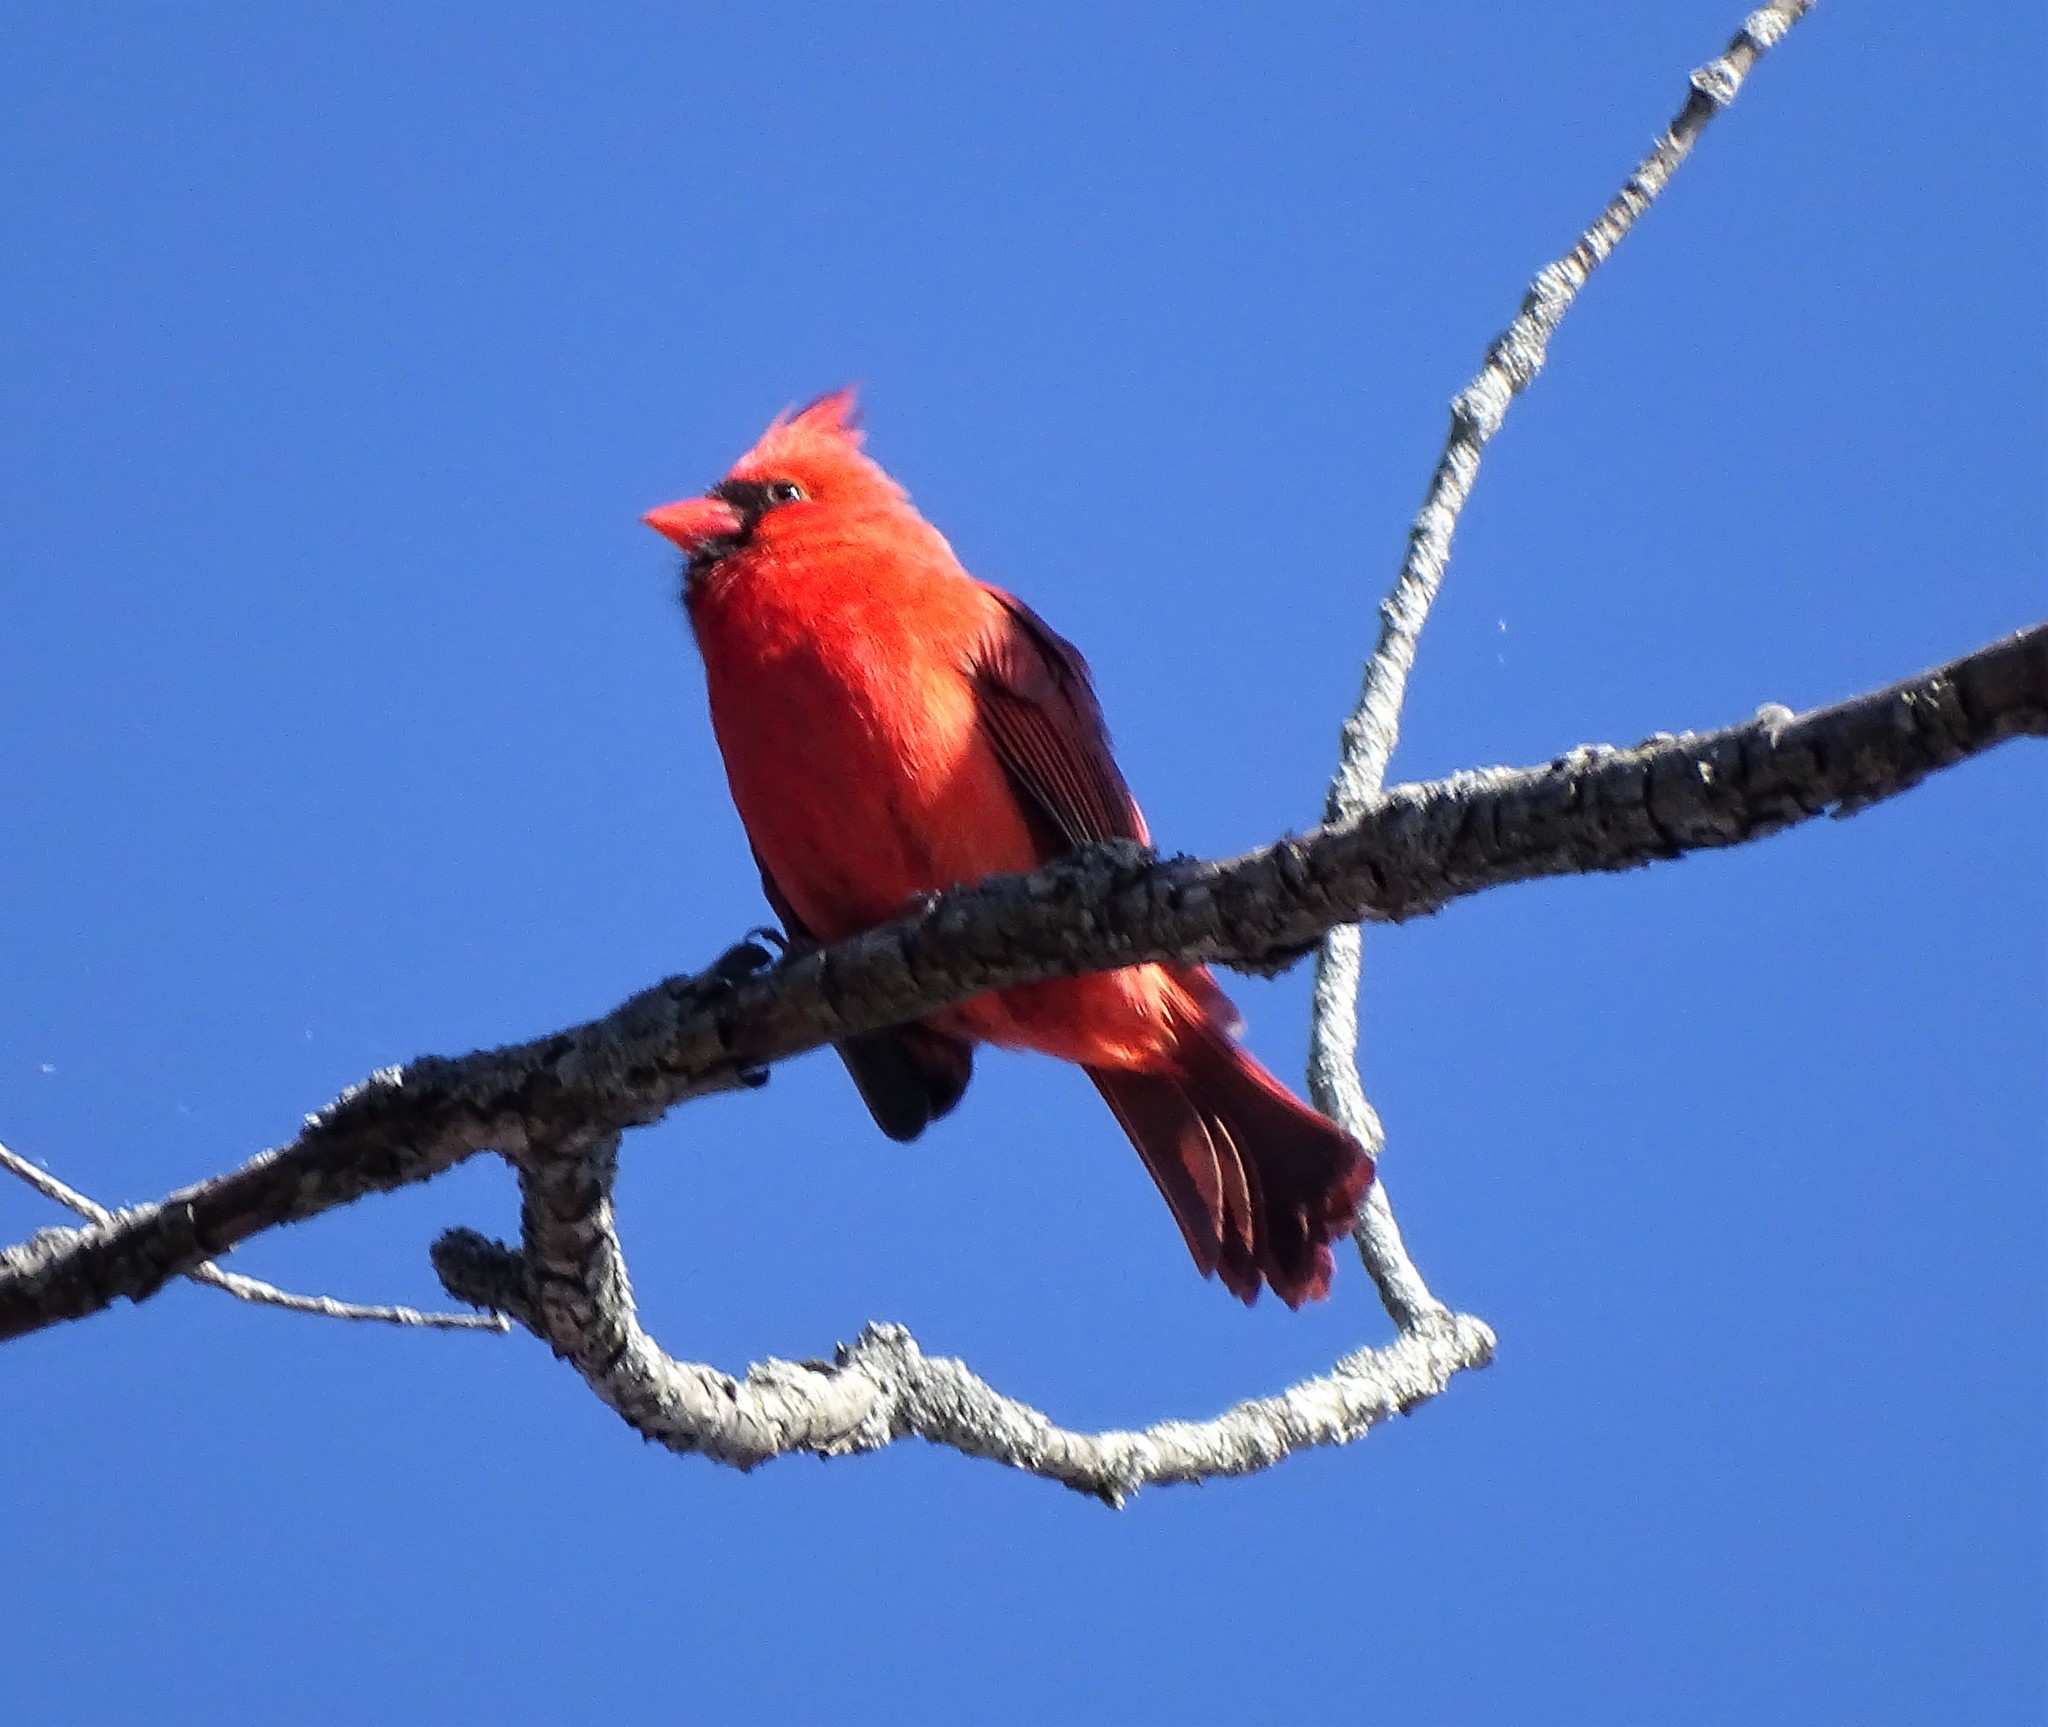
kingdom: Animalia
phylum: Chordata
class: Aves
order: Passeriformes
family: Cardinalidae
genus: Cardinalis
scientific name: Cardinalis cardinalis
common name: Northern cardinal
